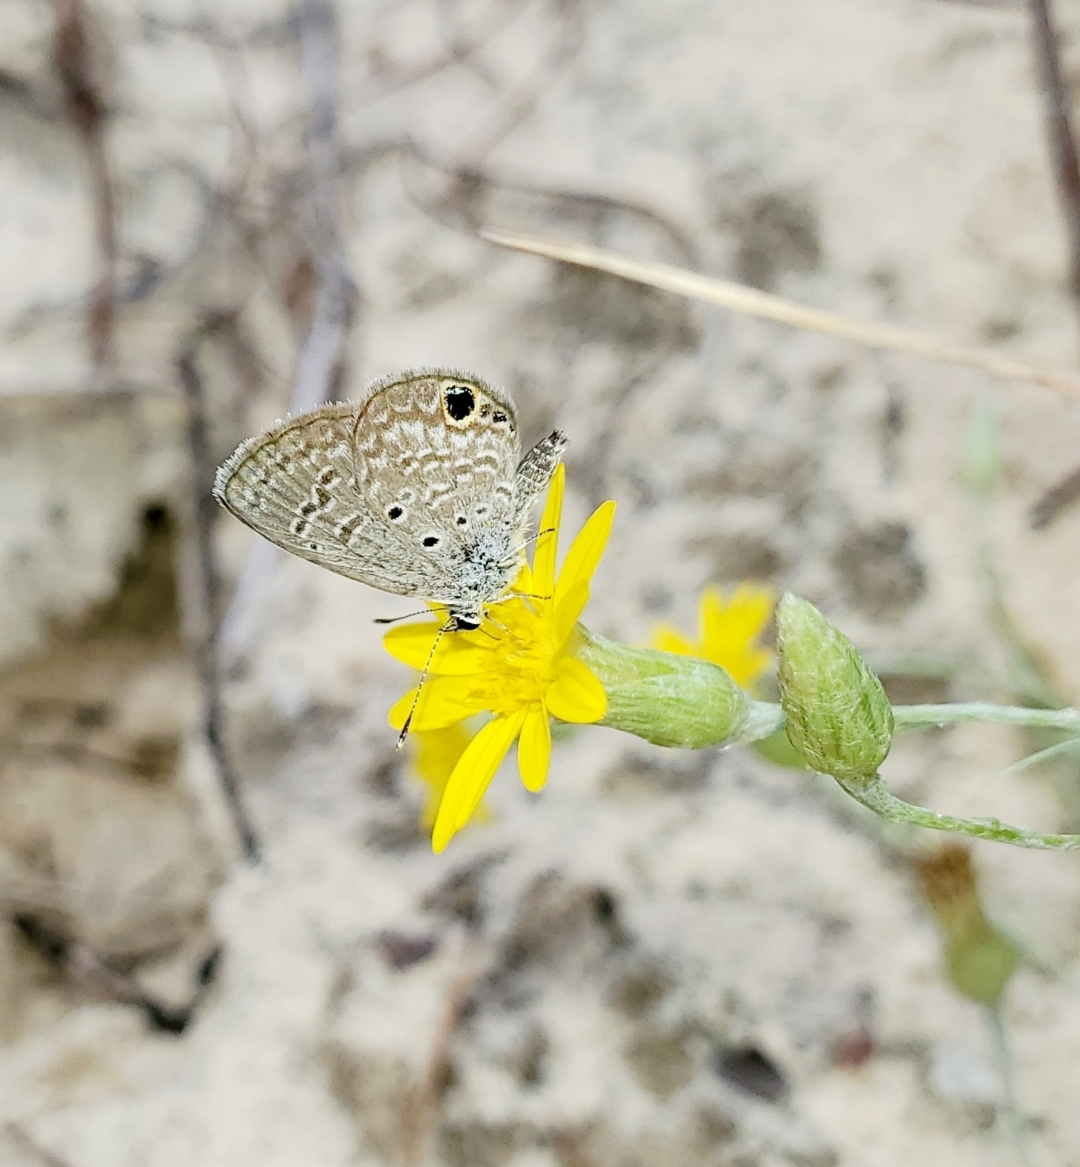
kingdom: Animalia
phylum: Arthropoda
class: Insecta
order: Lepidoptera
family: Lycaenidae
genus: Hemiargus
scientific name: Hemiargus ceraunus
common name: Ceraunus blue
